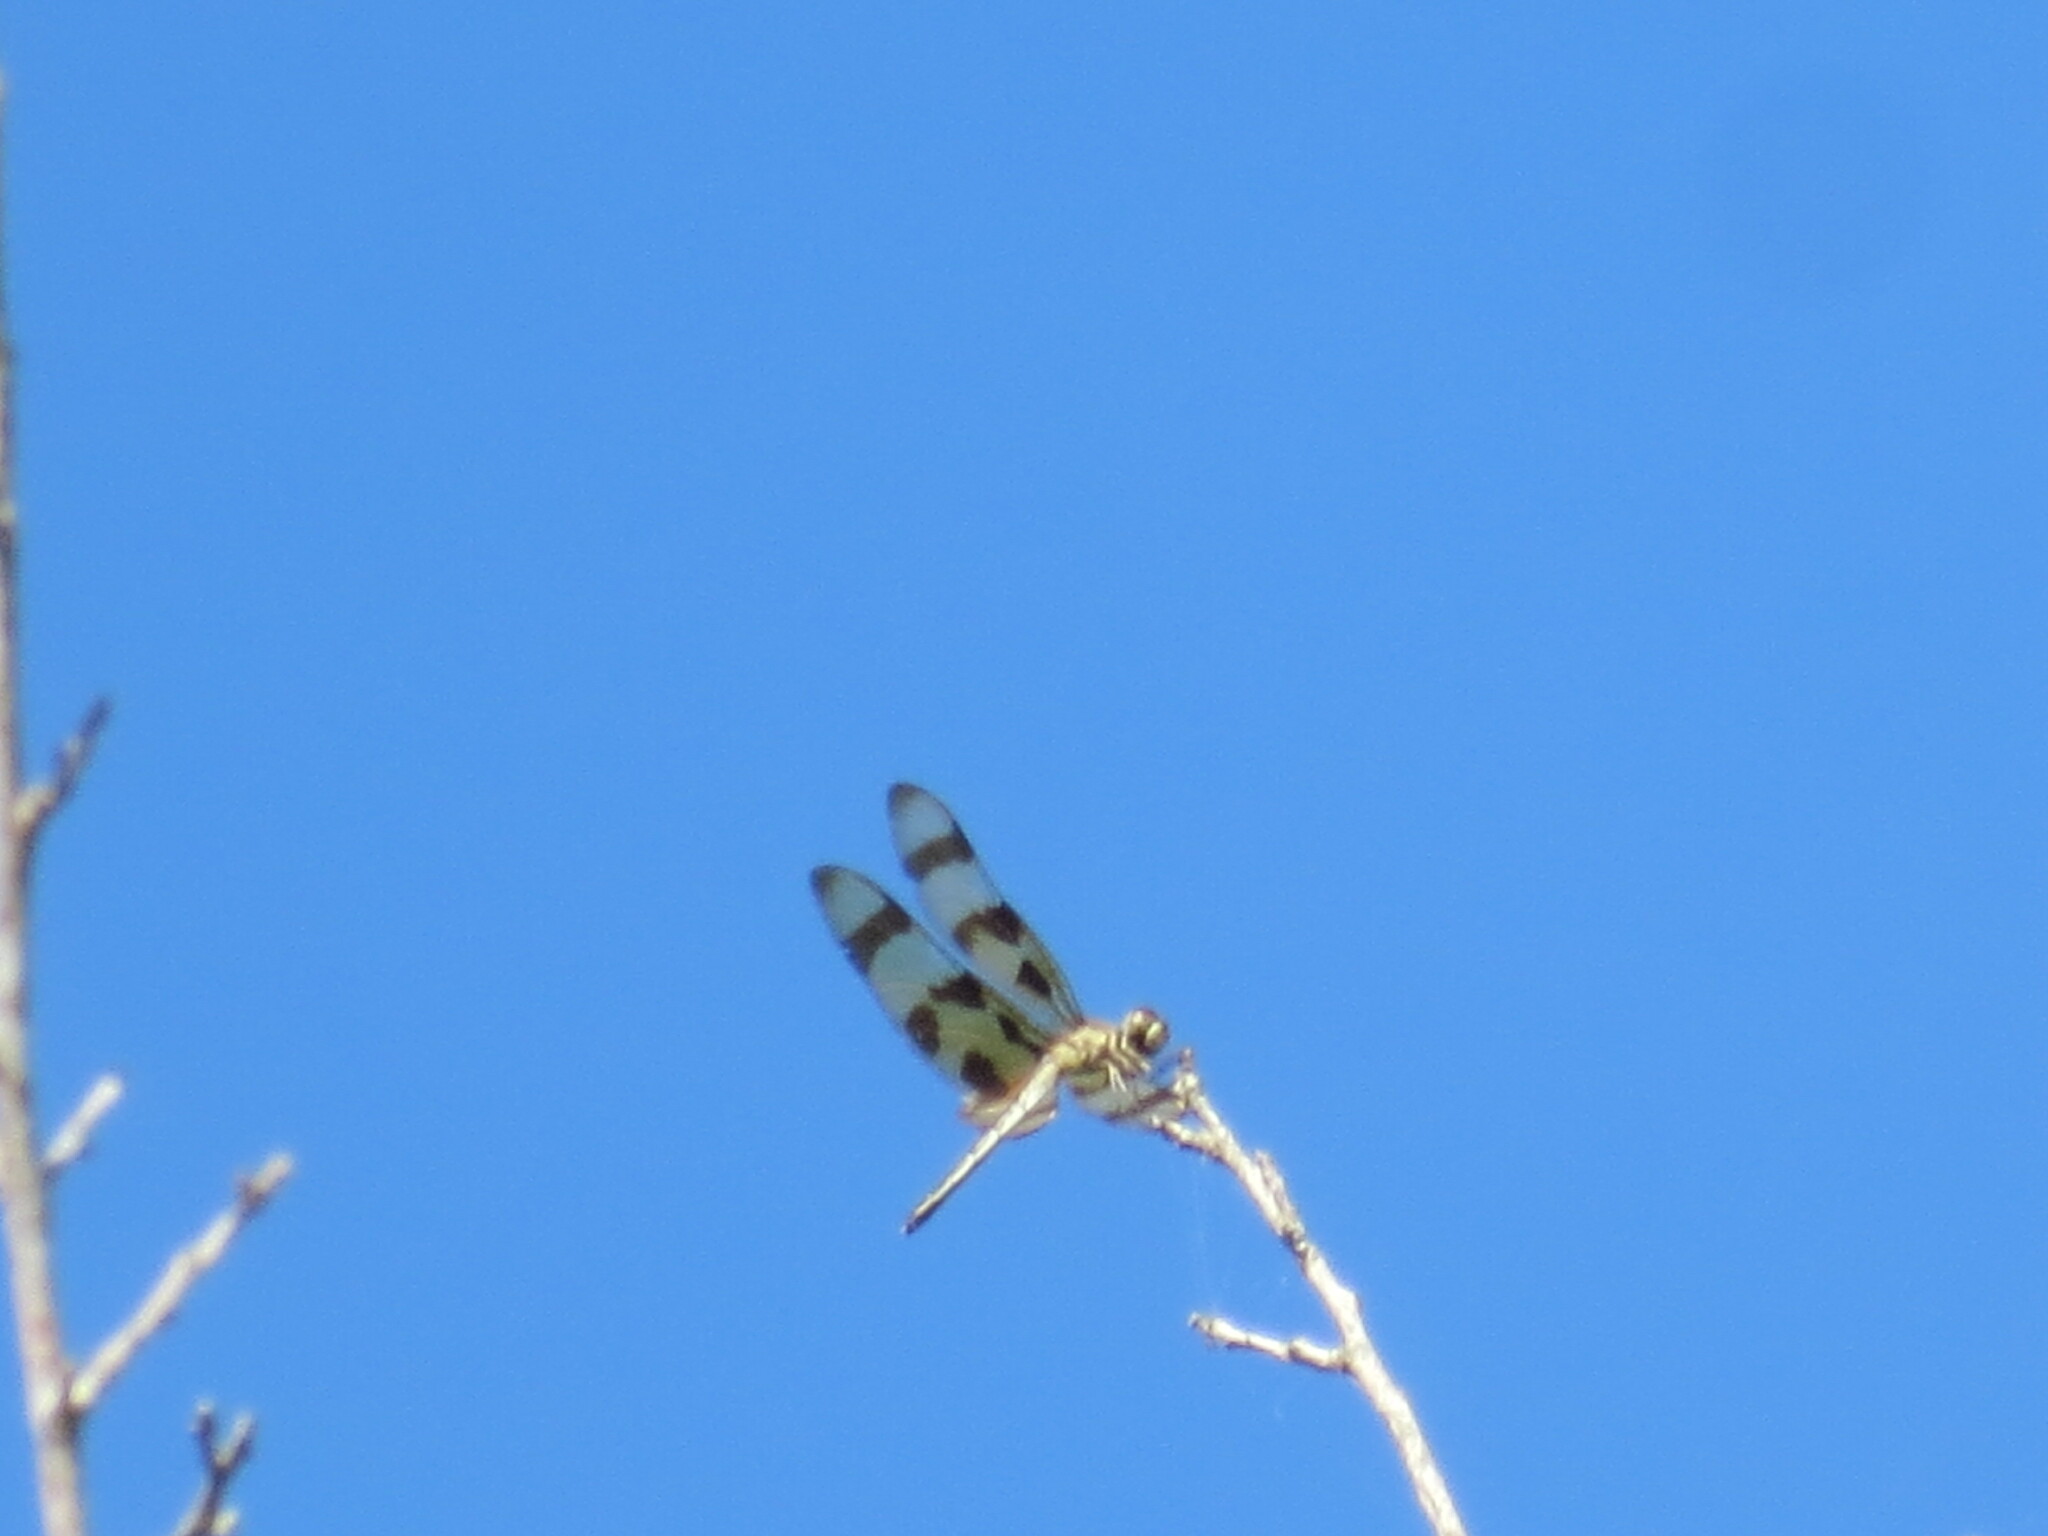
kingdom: Animalia
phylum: Arthropoda
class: Insecta
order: Odonata
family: Libellulidae
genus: Celithemis
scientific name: Celithemis eponina
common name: Halloween pennant
